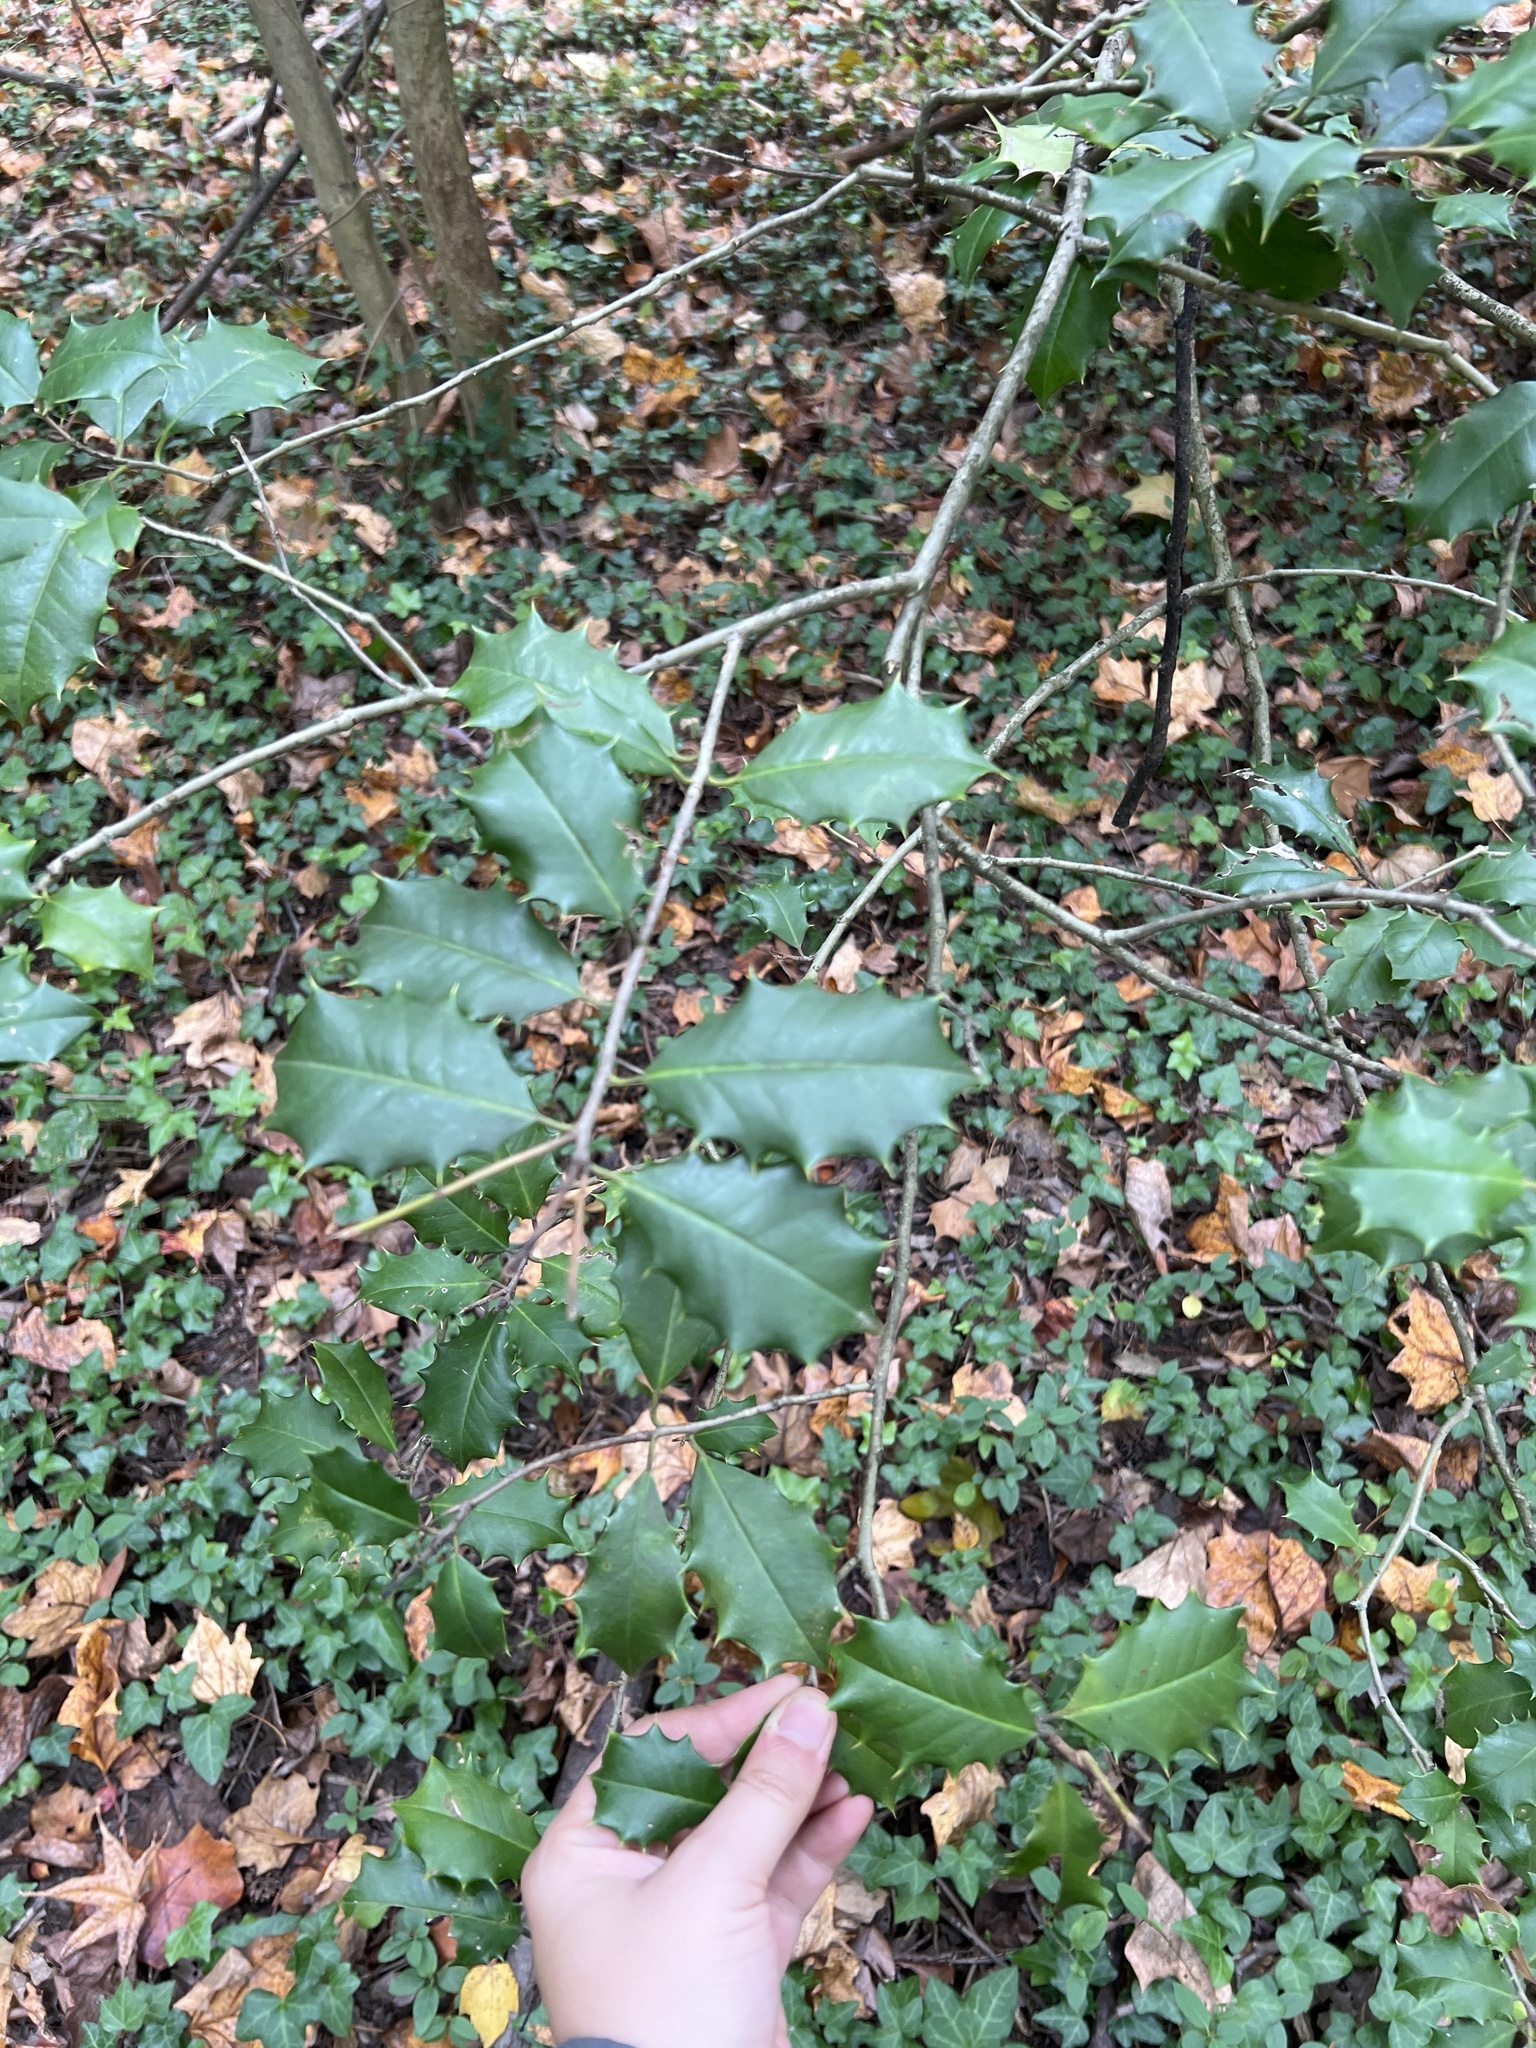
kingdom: Plantae
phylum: Tracheophyta
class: Magnoliopsida
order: Aquifoliales
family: Aquifoliaceae
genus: Ilex
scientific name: Ilex opaca
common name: American holly
